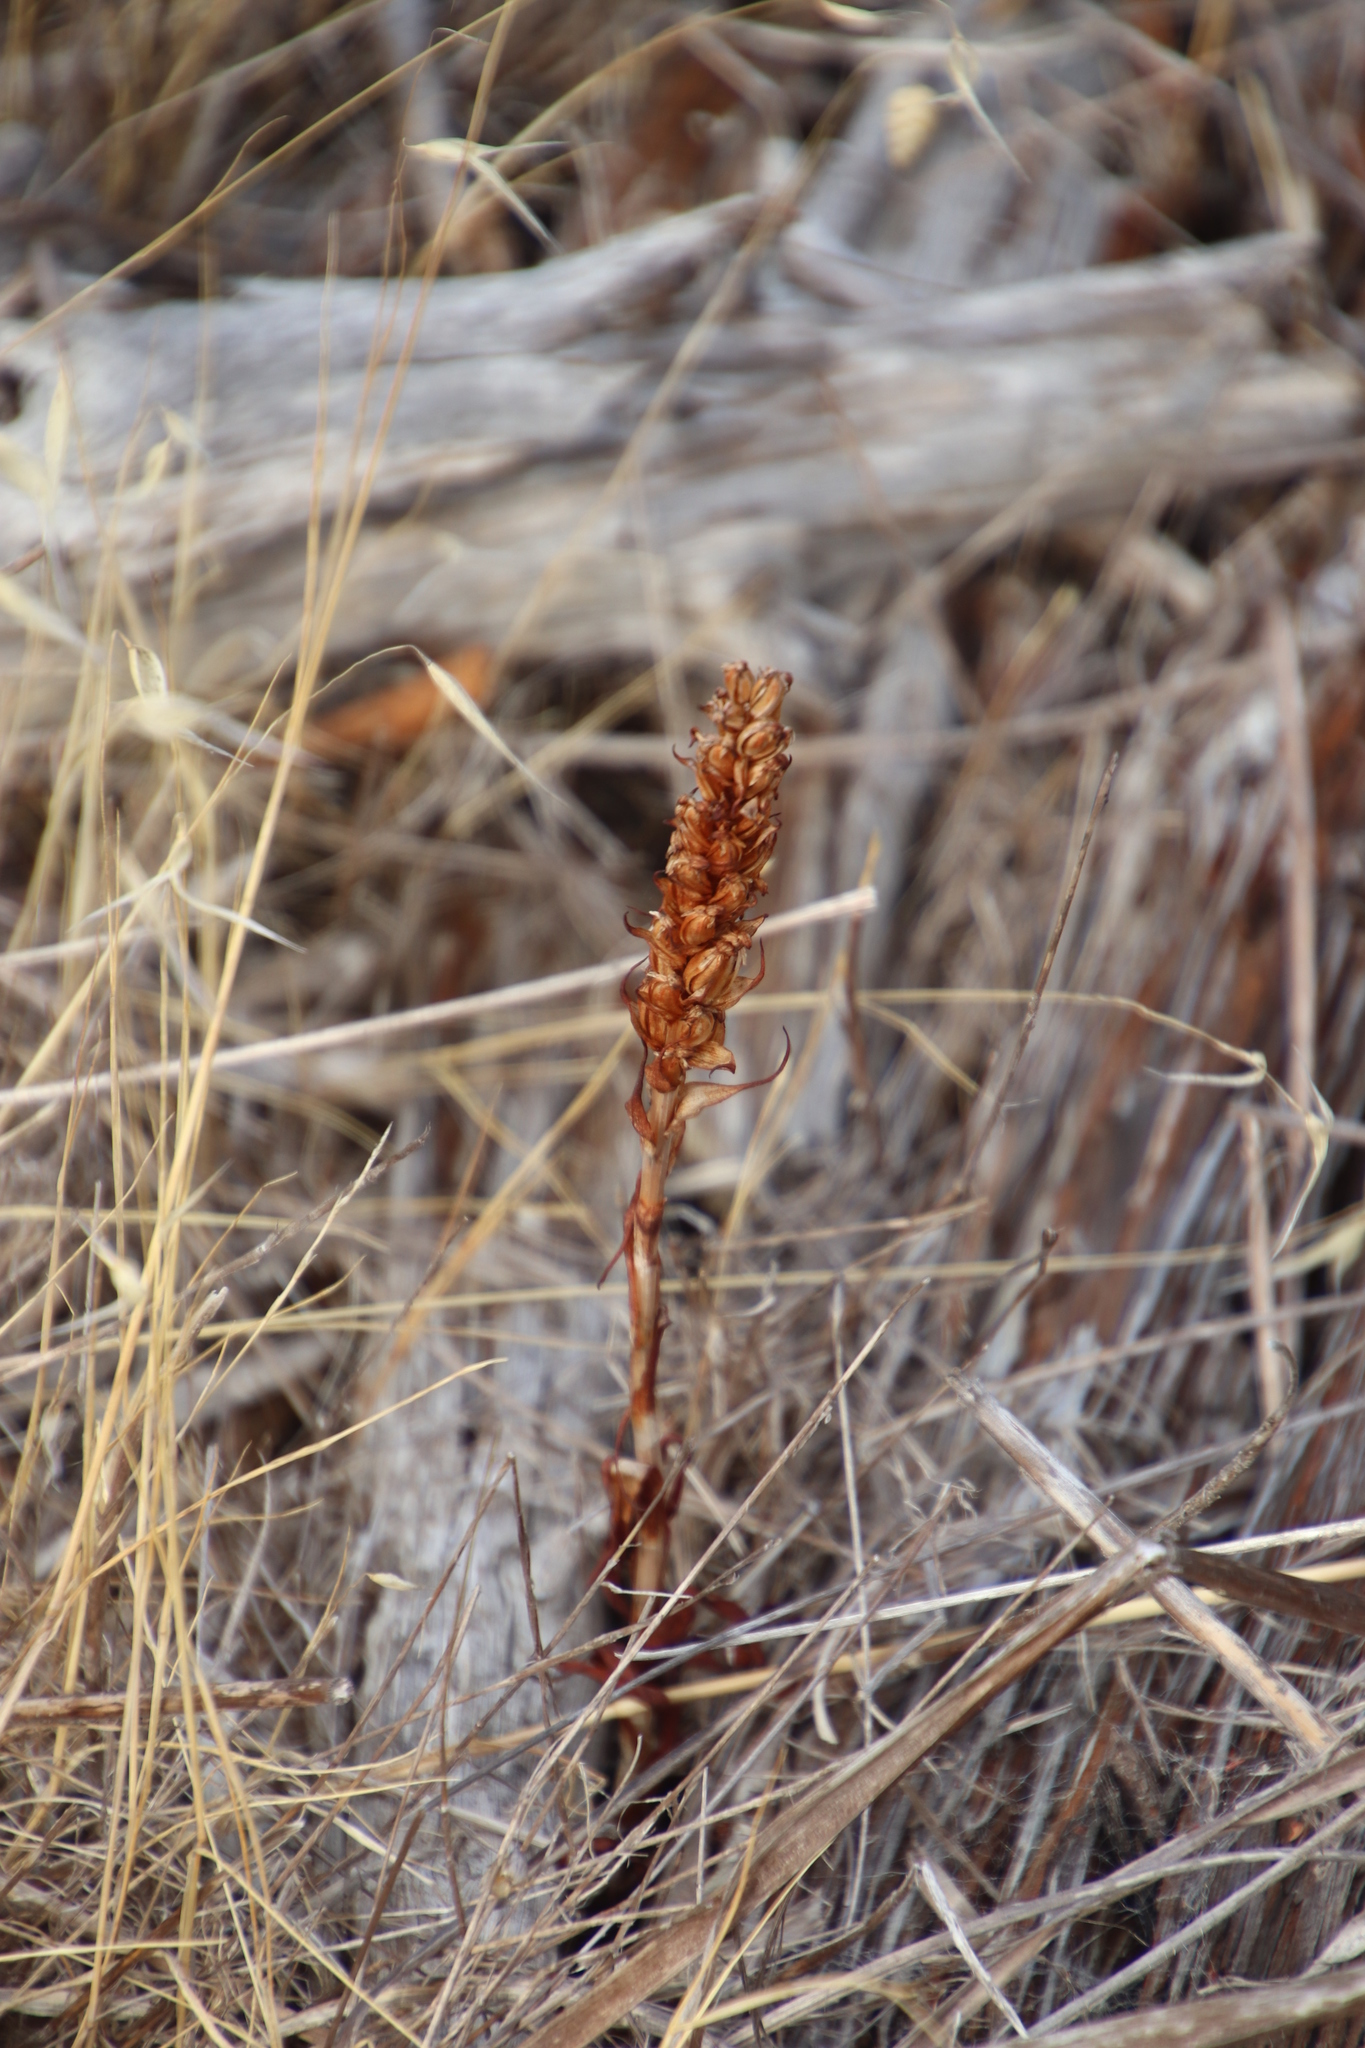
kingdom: Plantae
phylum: Tracheophyta
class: Liliopsida
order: Asparagales
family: Orchidaceae
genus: Disa
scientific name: Disa bracteata
